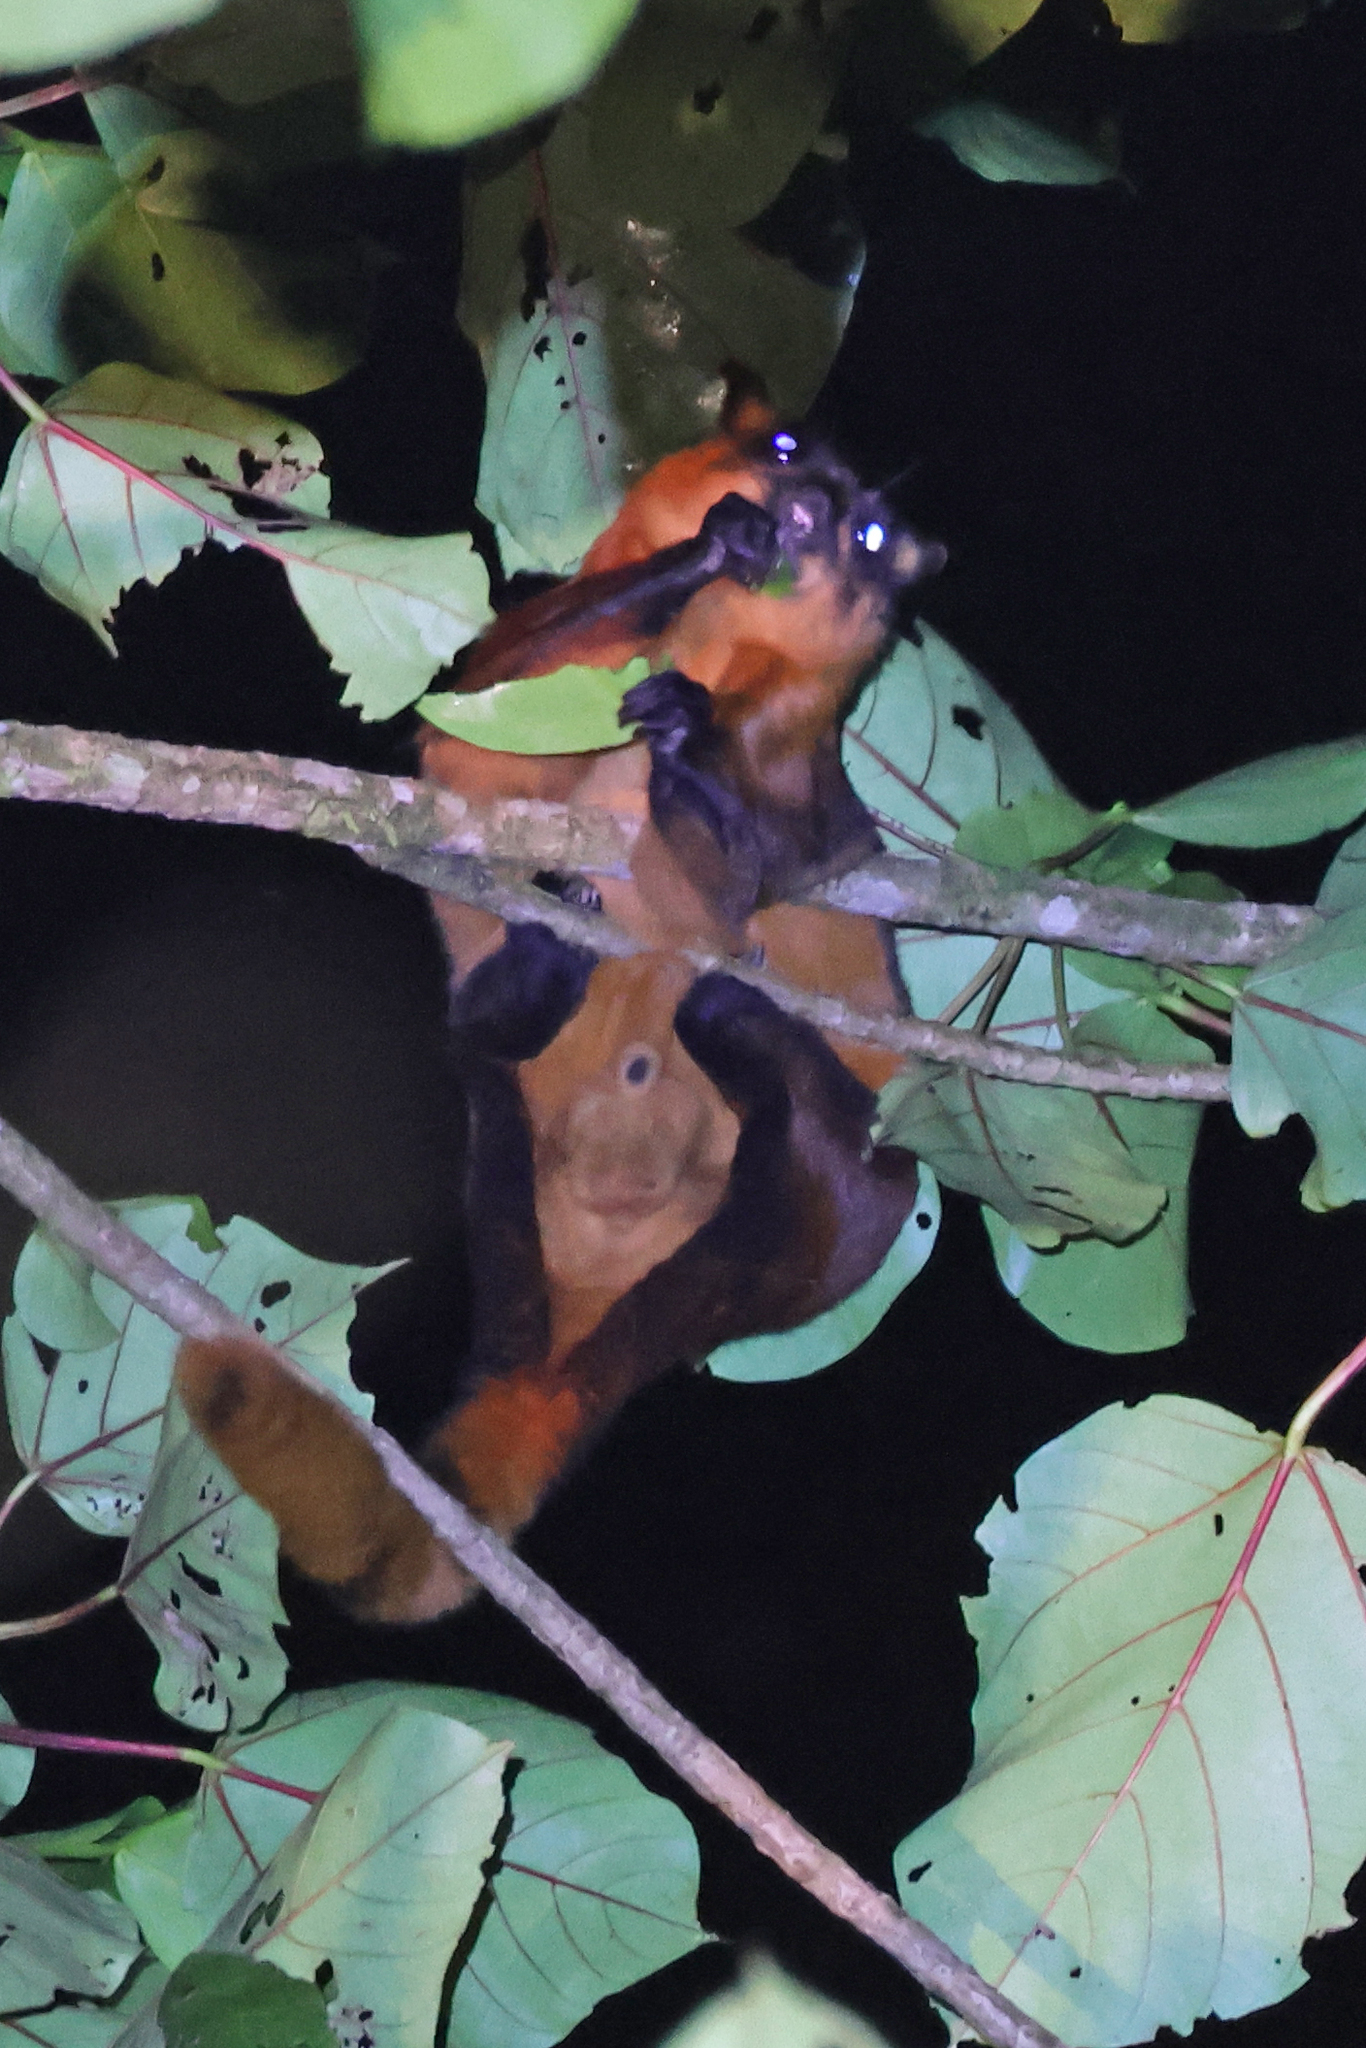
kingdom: Animalia
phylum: Chordata
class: Mammalia
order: Rodentia
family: Sciuridae
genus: Aeromys
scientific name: Aeromys thomasi
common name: Thomas's flying squirrel
